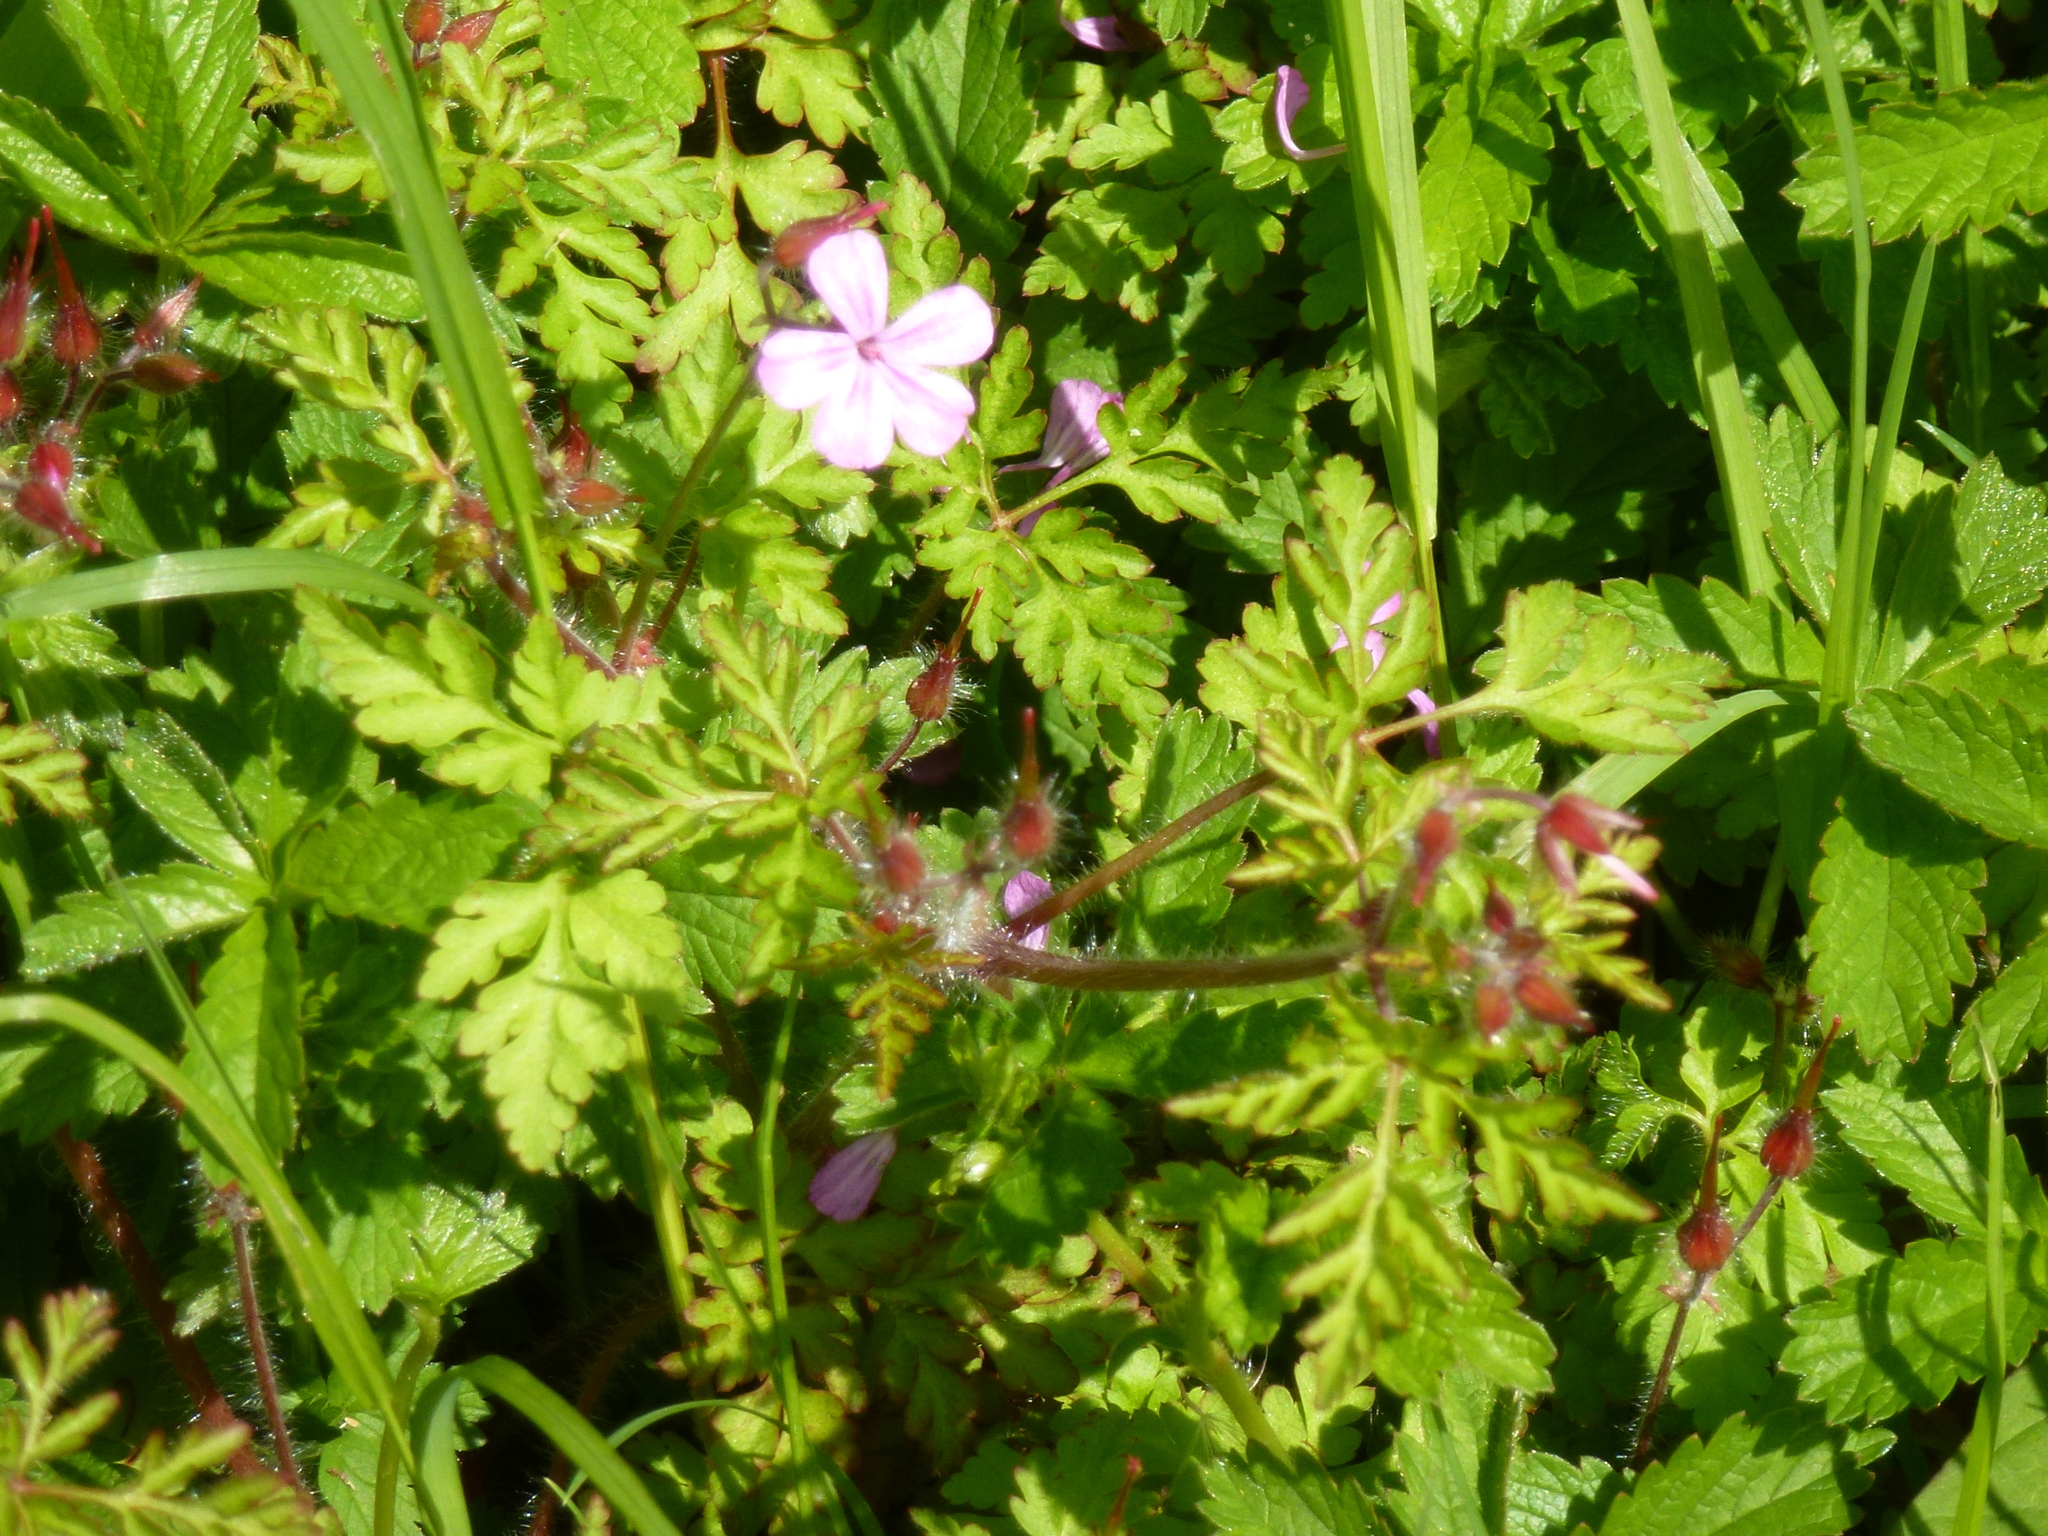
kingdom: Plantae
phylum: Tracheophyta
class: Magnoliopsida
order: Geraniales
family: Geraniaceae
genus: Geranium
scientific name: Geranium robertianum
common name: Herb-robert
